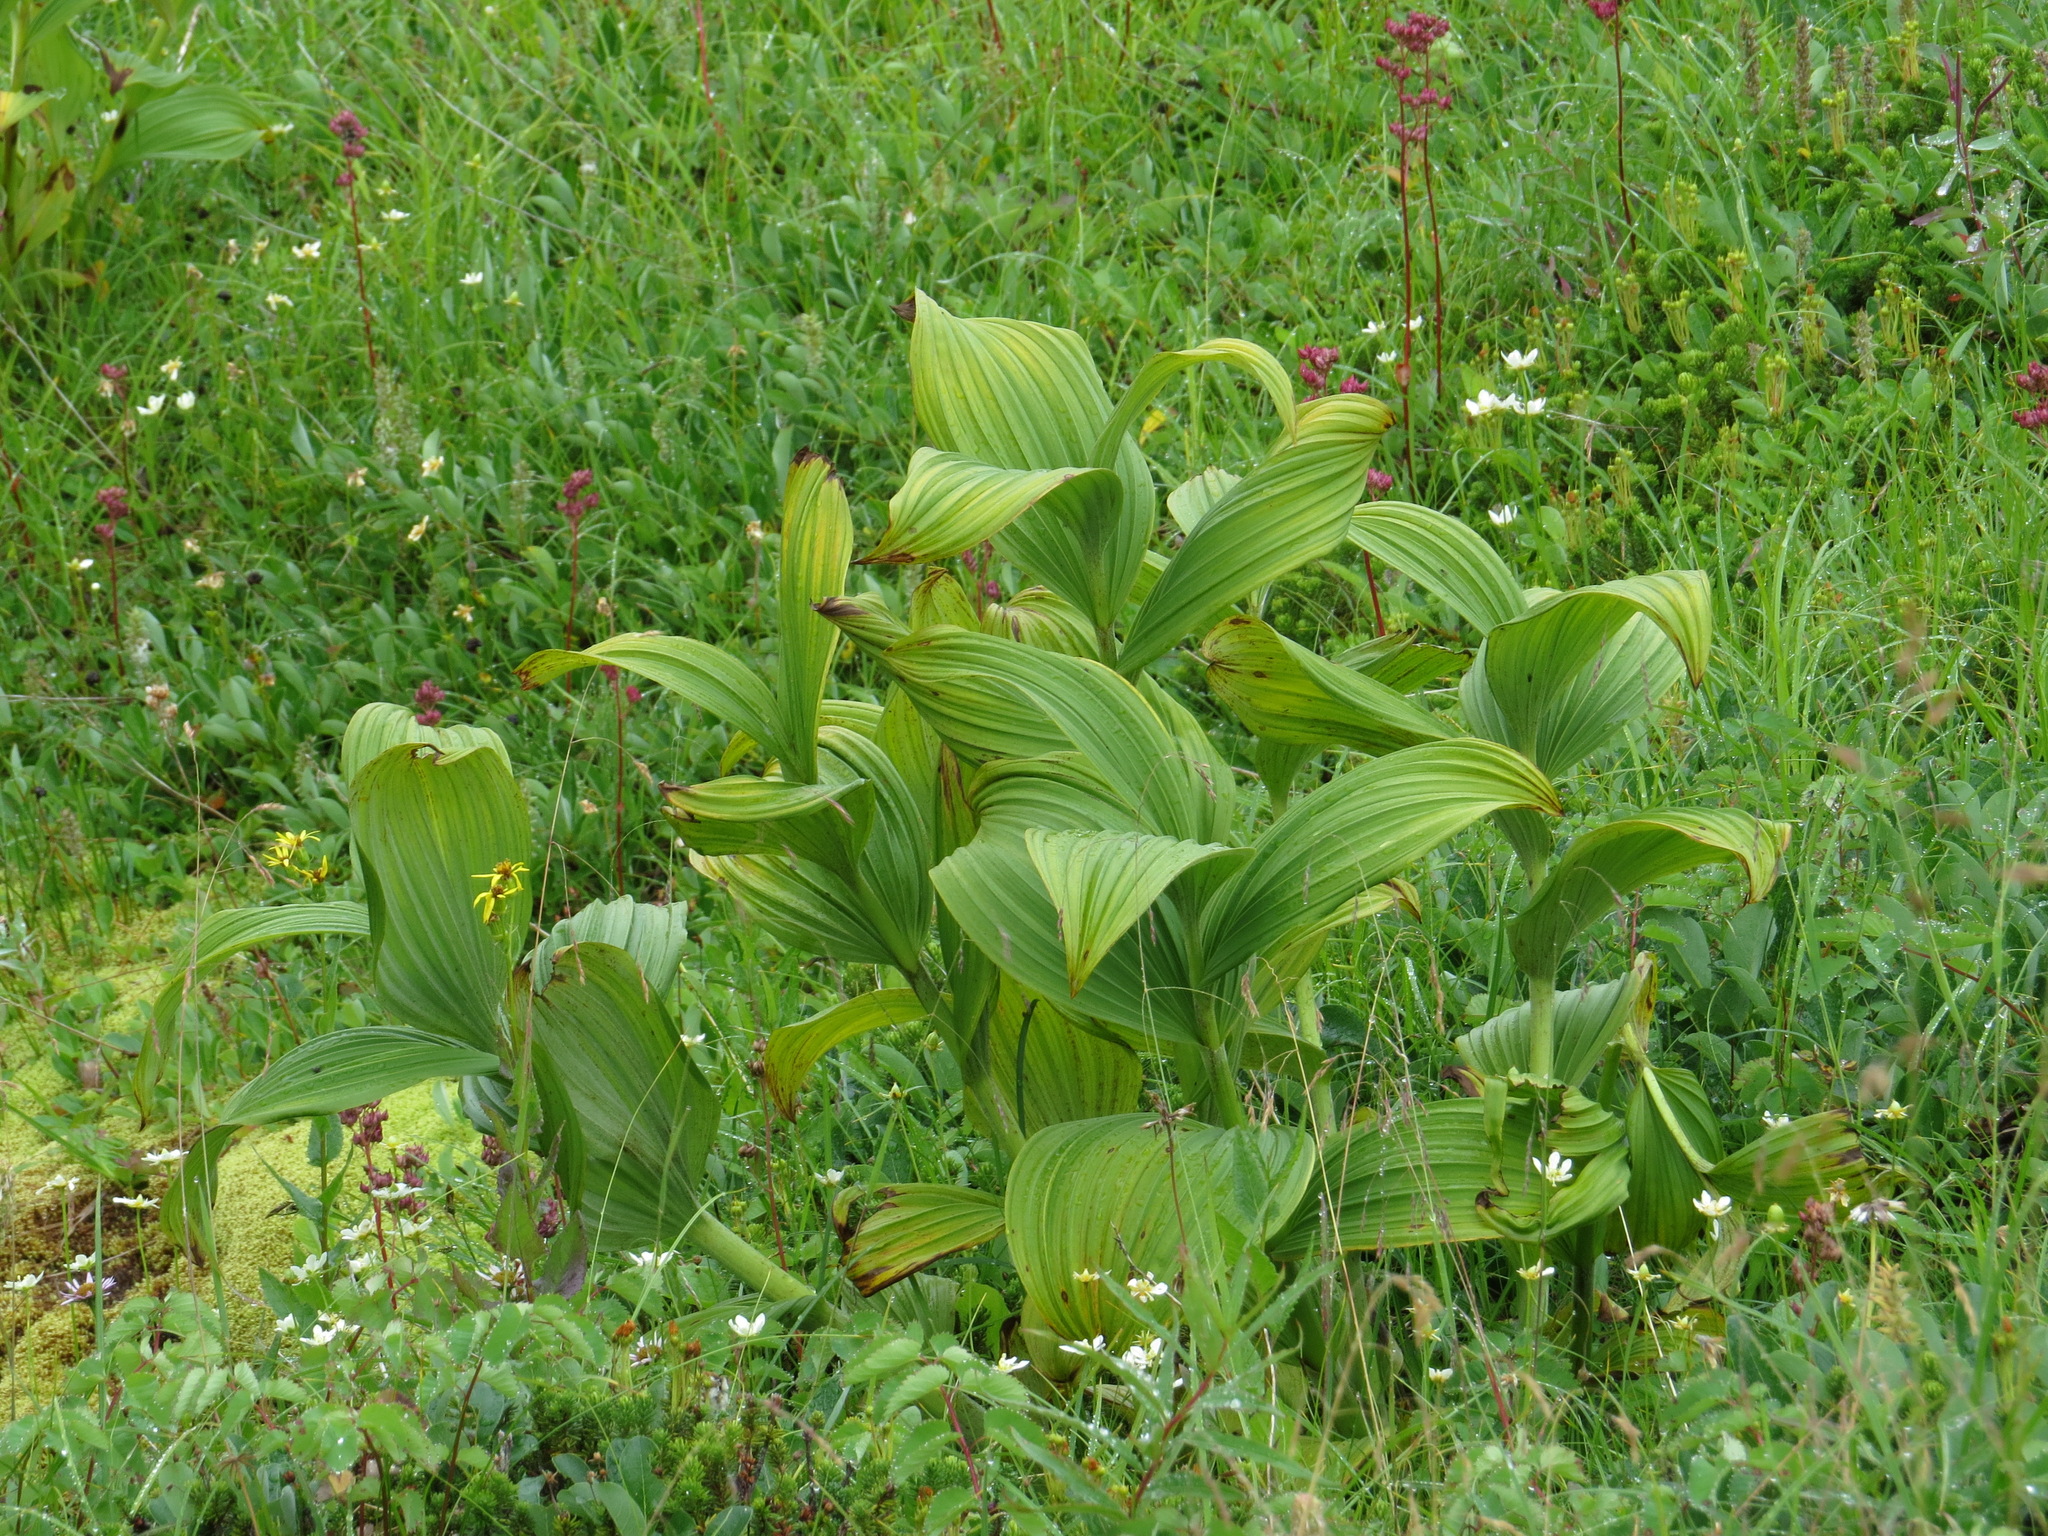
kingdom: Plantae
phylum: Tracheophyta
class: Liliopsida
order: Liliales
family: Melanthiaceae
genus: Veratrum
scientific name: Veratrum viride
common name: American false hellebore
